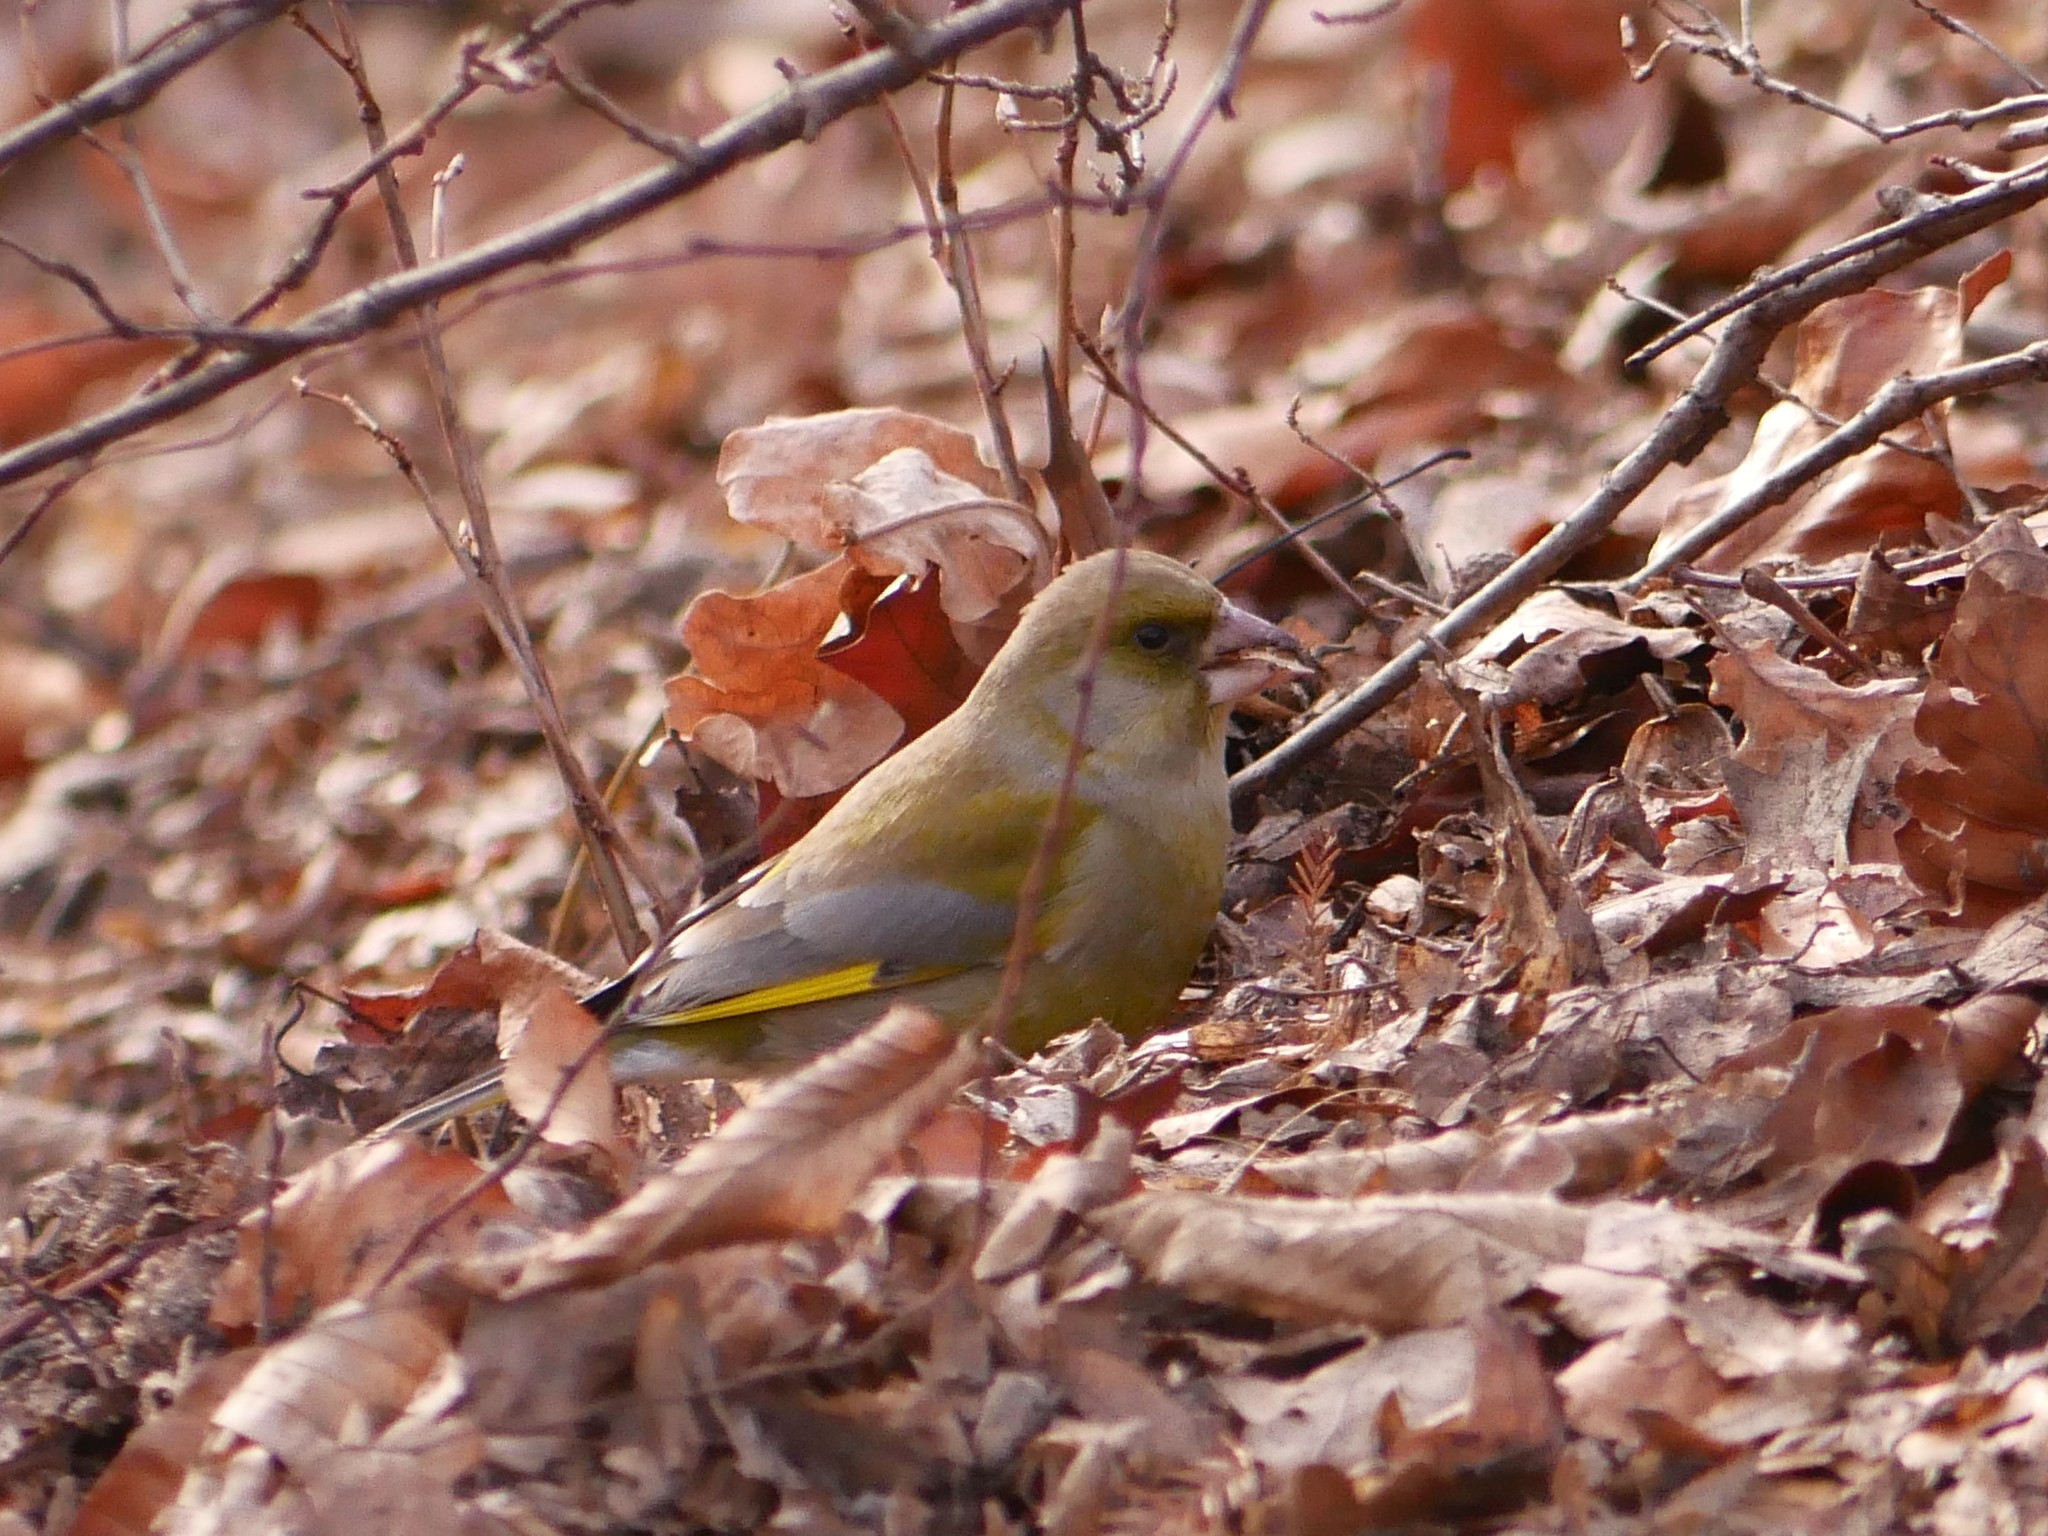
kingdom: Plantae
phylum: Tracheophyta
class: Liliopsida
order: Poales
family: Poaceae
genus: Chloris
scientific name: Chloris chloris
